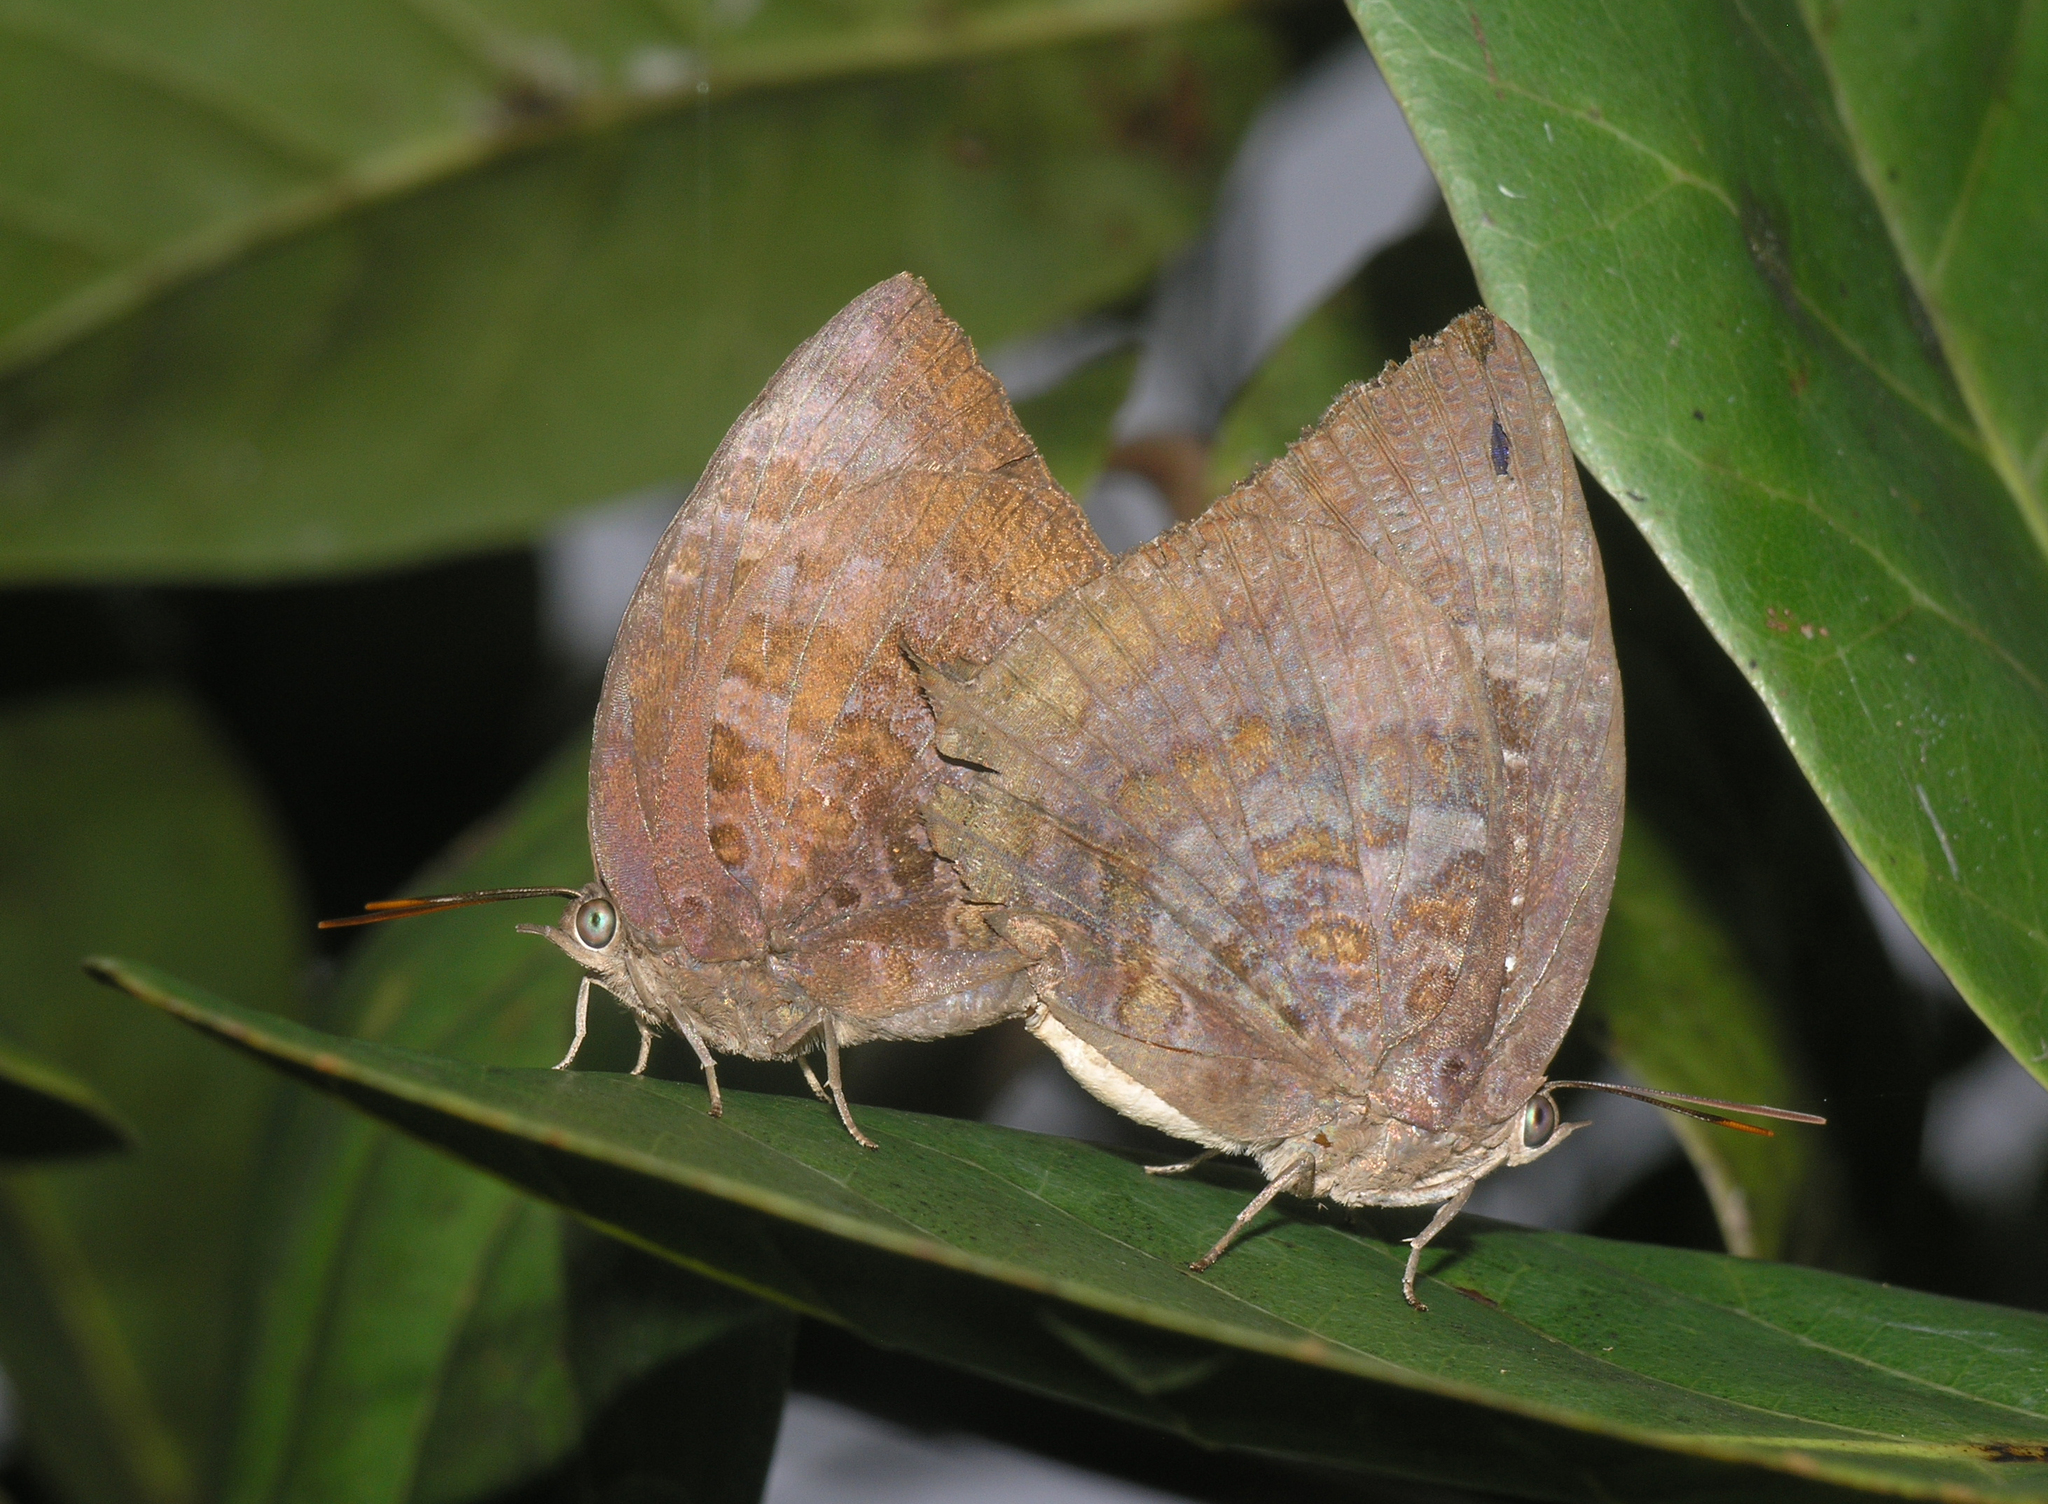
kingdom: Animalia
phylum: Arthropoda
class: Insecta
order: Lepidoptera
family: Lycaenidae
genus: Arhopala
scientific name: Arhopala centaurus
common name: Dull oak-blue
